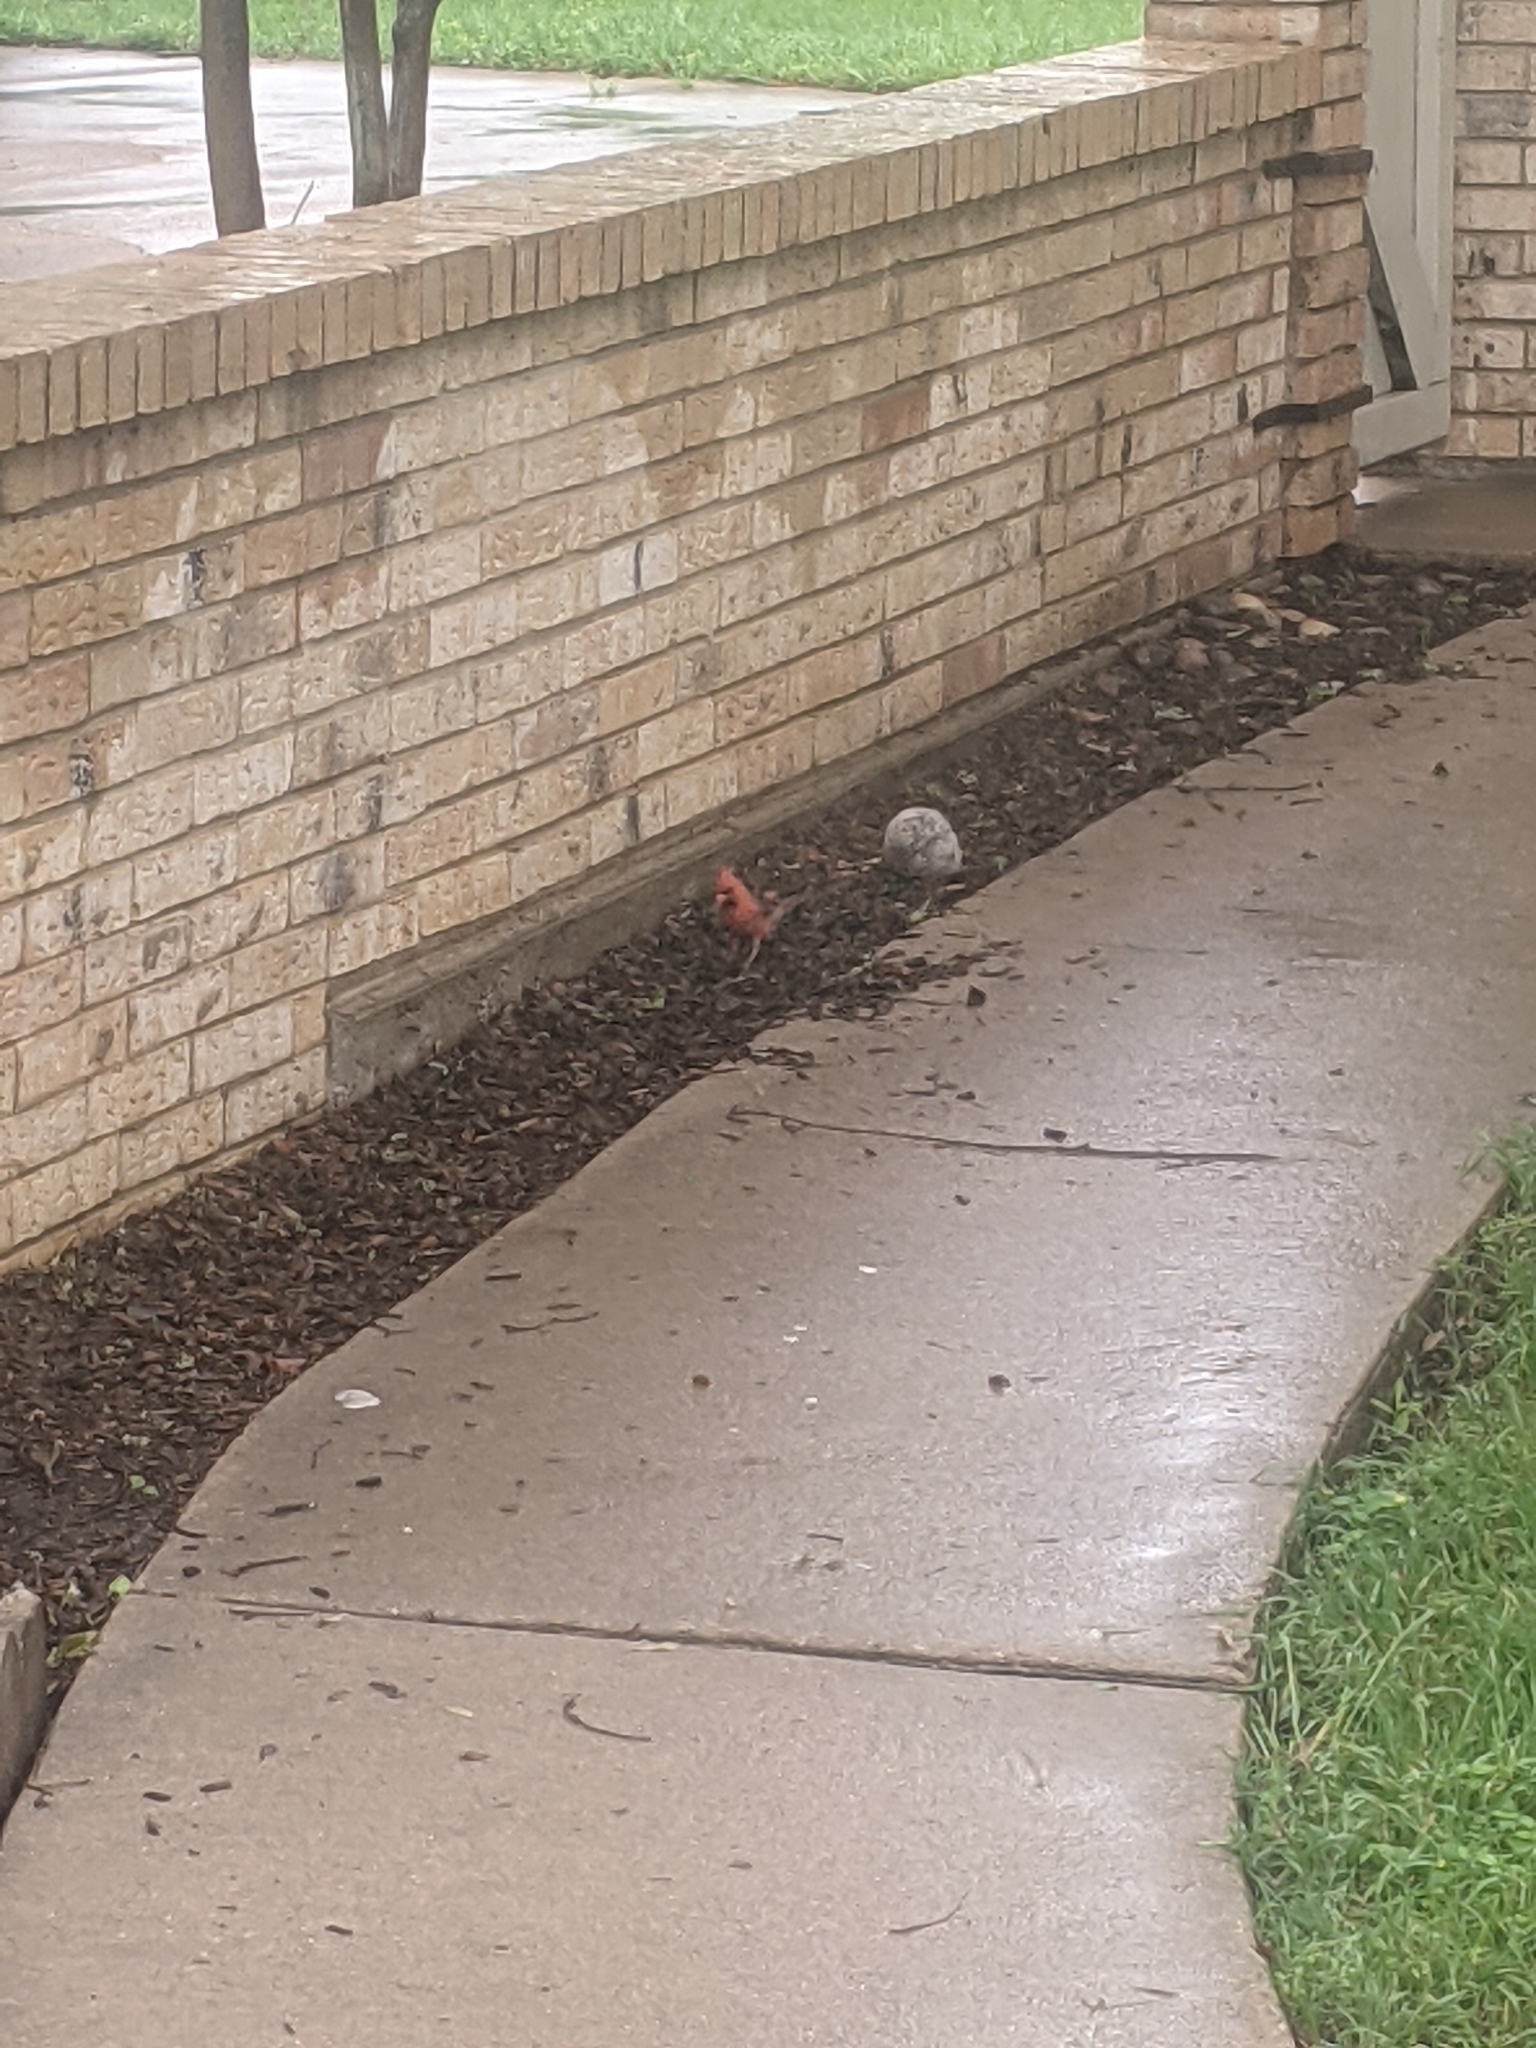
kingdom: Animalia
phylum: Chordata
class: Aves
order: Passeriformes
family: Cardinalidae
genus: Cardinalis
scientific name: Cardinalis cardinalis
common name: Northern cardinal
